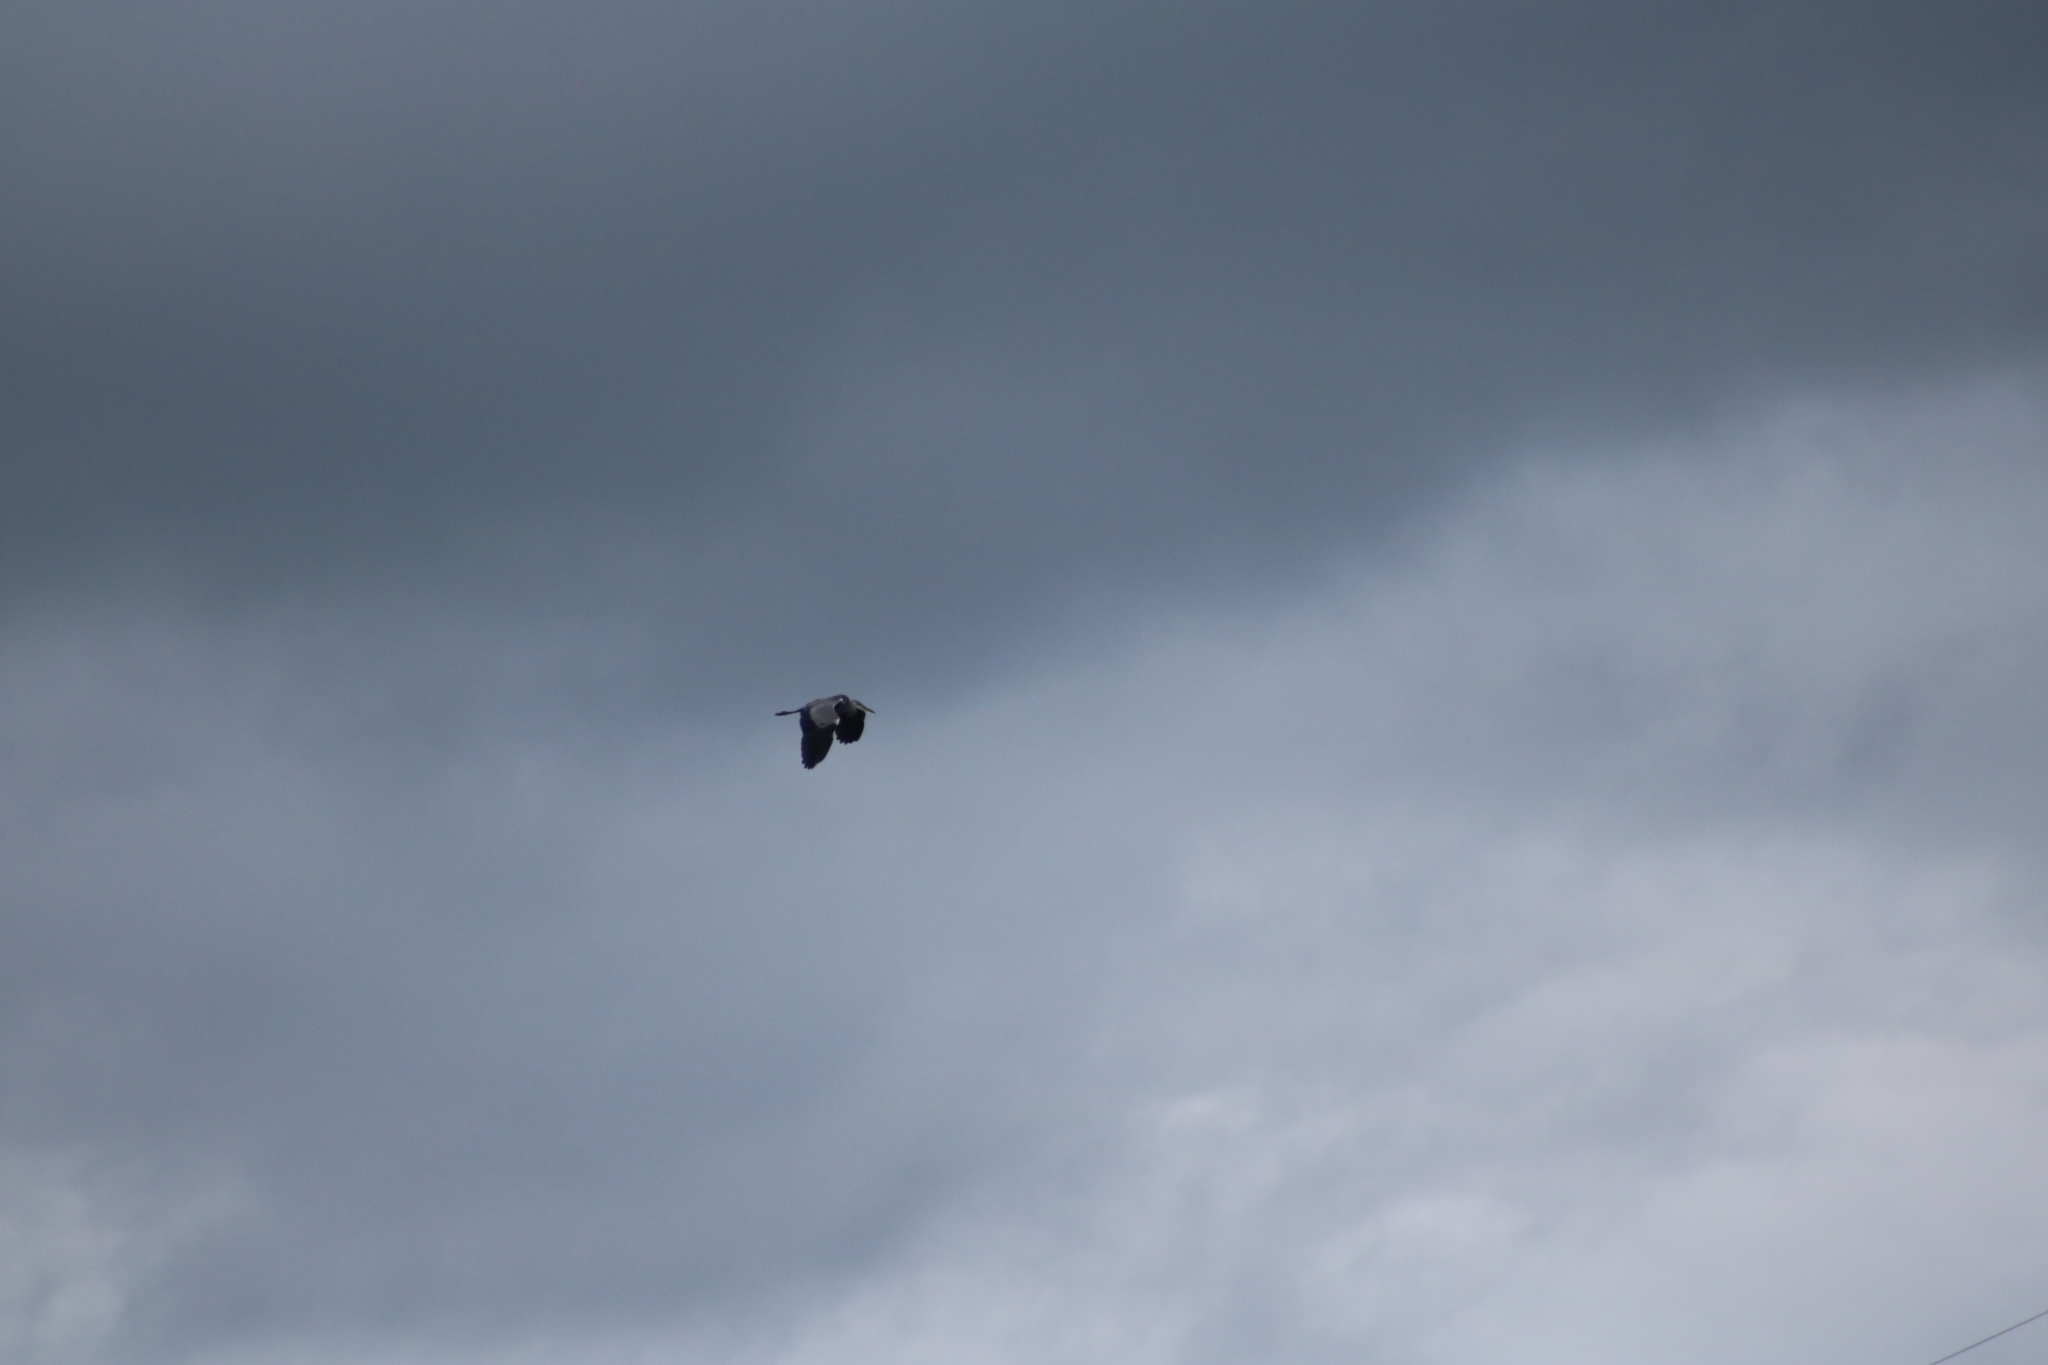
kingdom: Animalia
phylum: Chordata
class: Aves
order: Pelecaniformes
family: Ardeidae
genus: Ardea
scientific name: Ardea cinerea
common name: Grey heron
